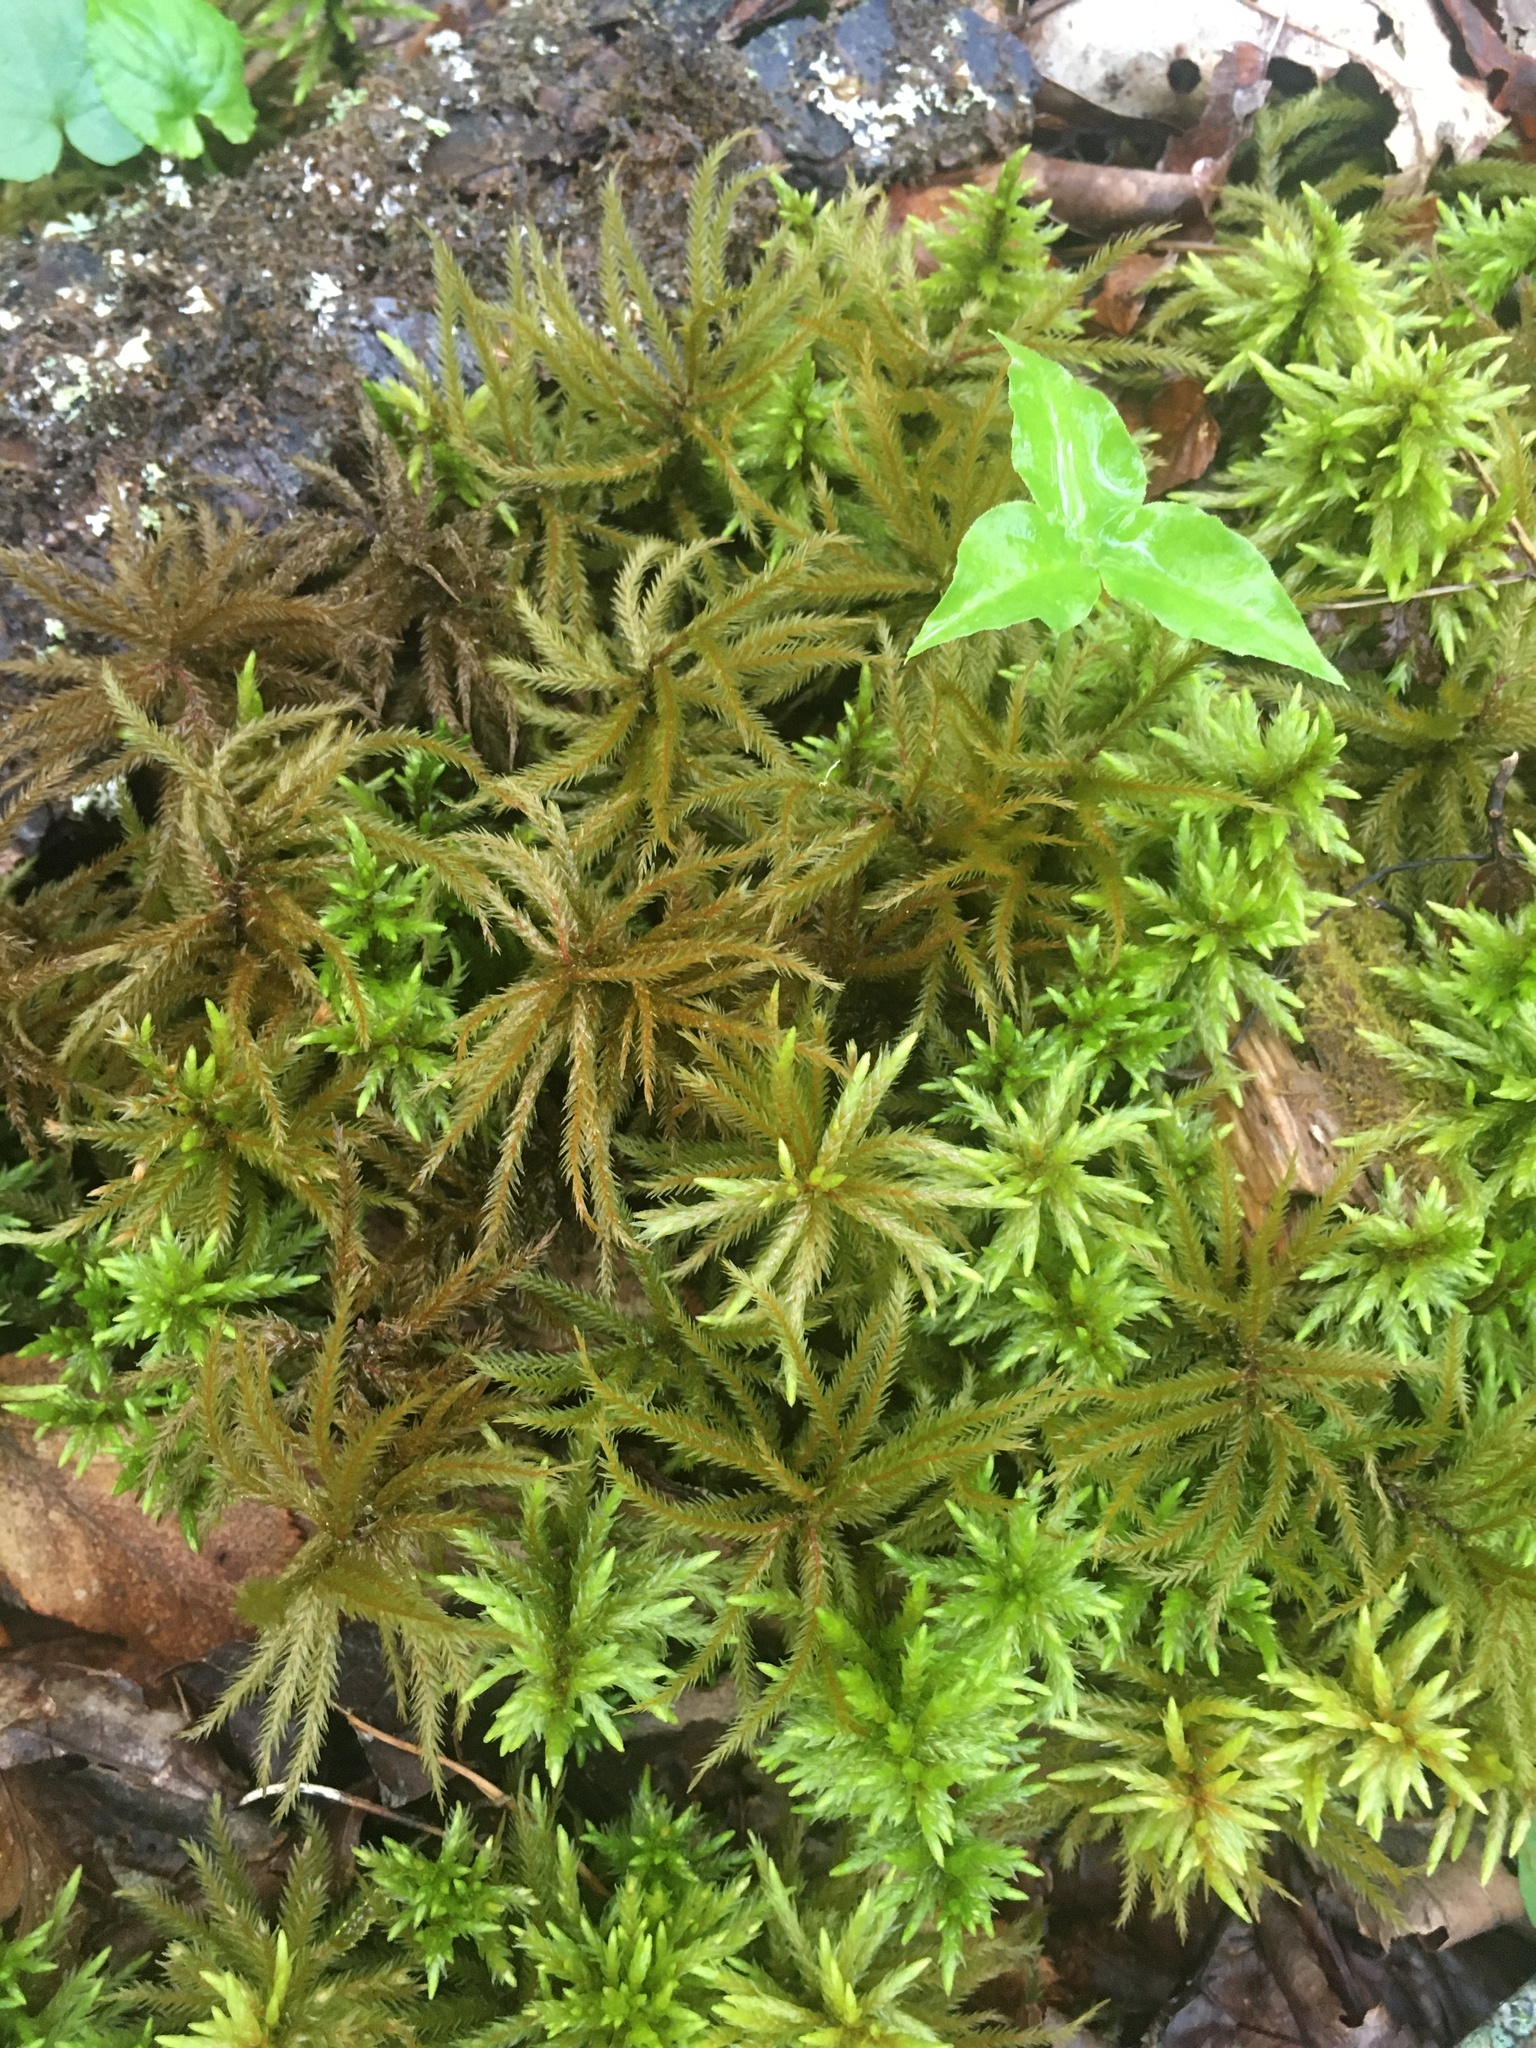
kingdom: Plantae
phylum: Bryophyta
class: Bryopsida
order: Hypnales
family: Climaciaceae
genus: Climacium
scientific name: Climacium americanum
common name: American tree moss
